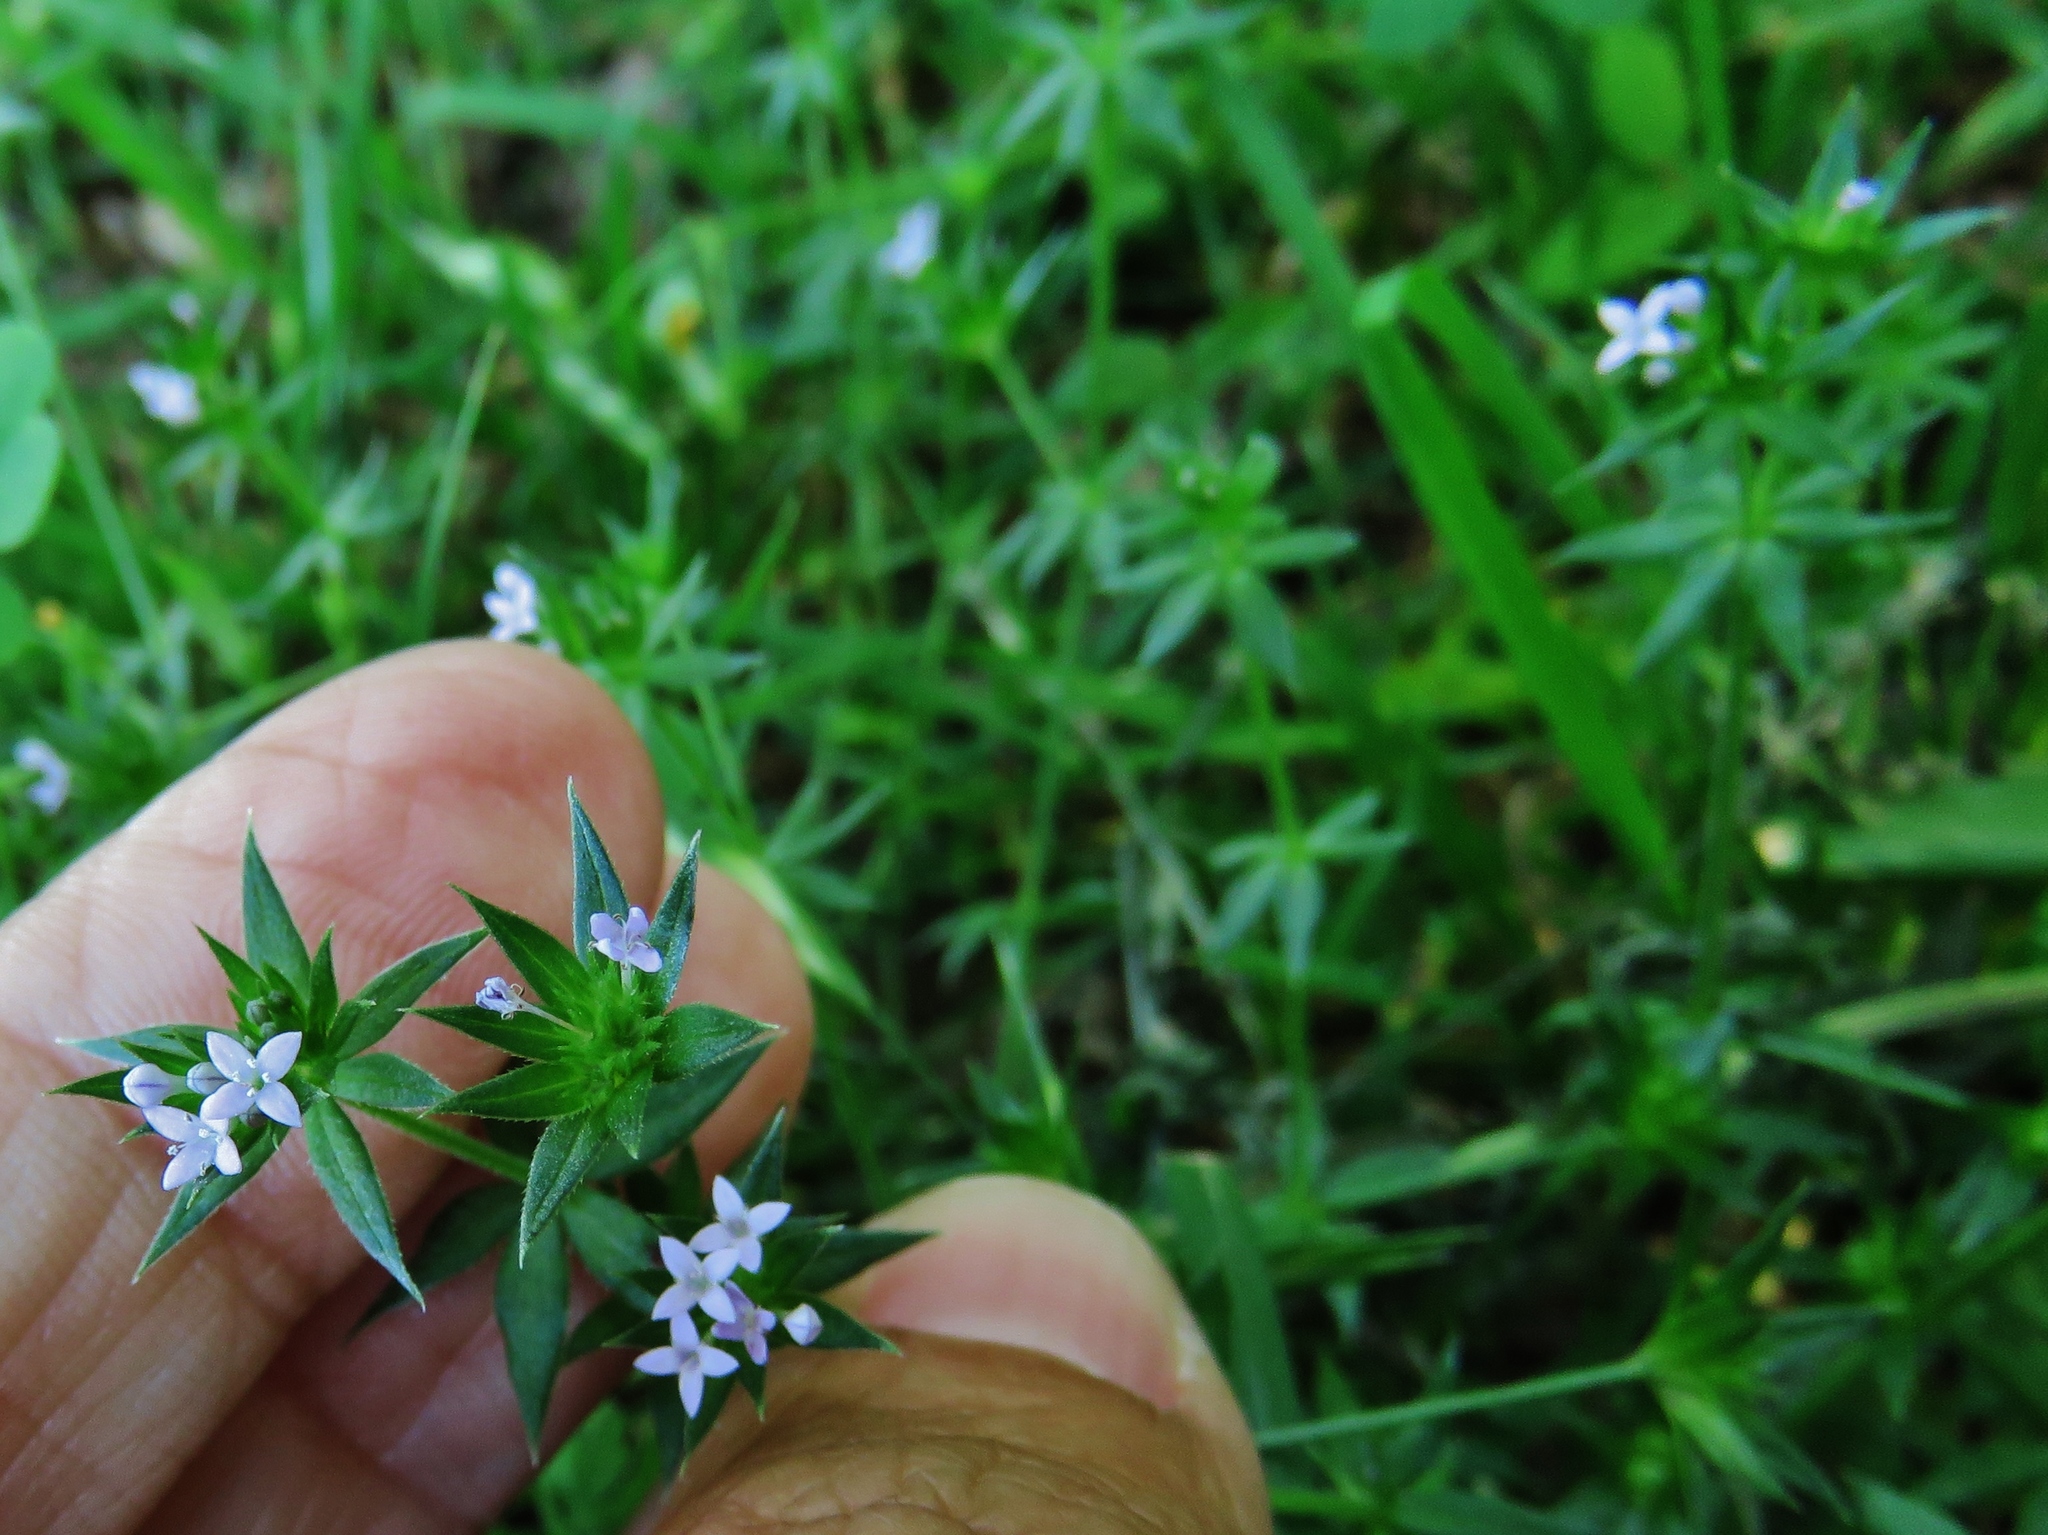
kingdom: Plantae
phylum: Tracheophyta
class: Magnoliopsida
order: Gentianales
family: Rubiaceae
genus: Sherardia
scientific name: Sherardia arvensis
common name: Field madder
